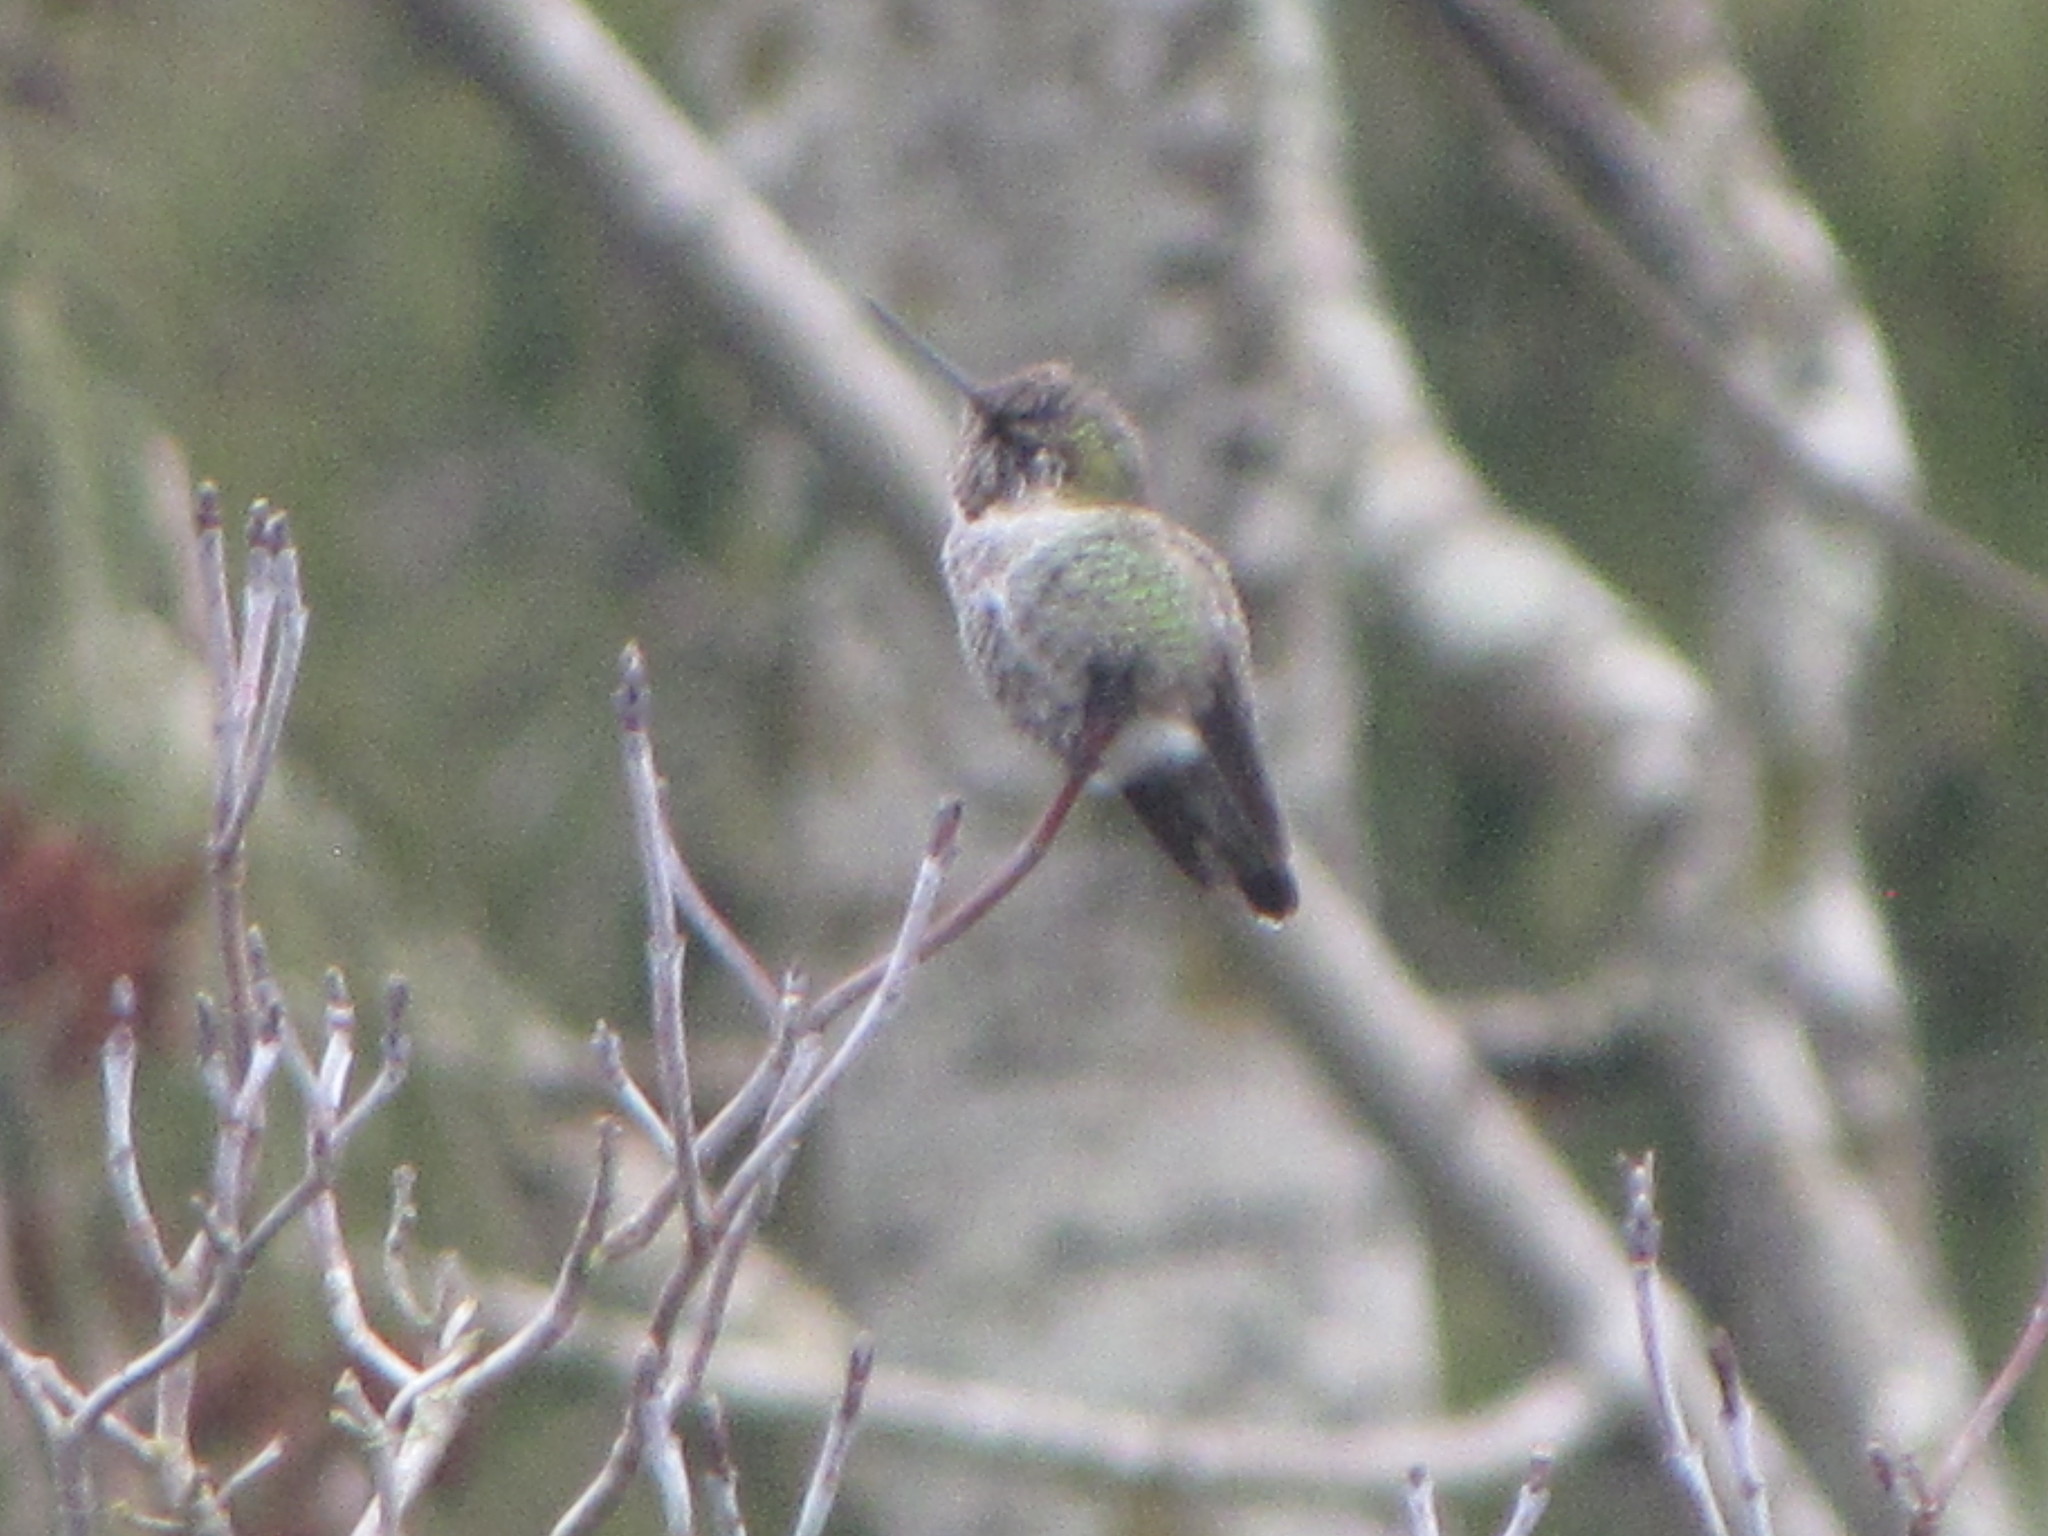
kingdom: Animalia
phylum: Chordata
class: Aves
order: Apodiformes
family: Trochilidae
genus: Calypte
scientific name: Calypte anna
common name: Anna's hummingbird
